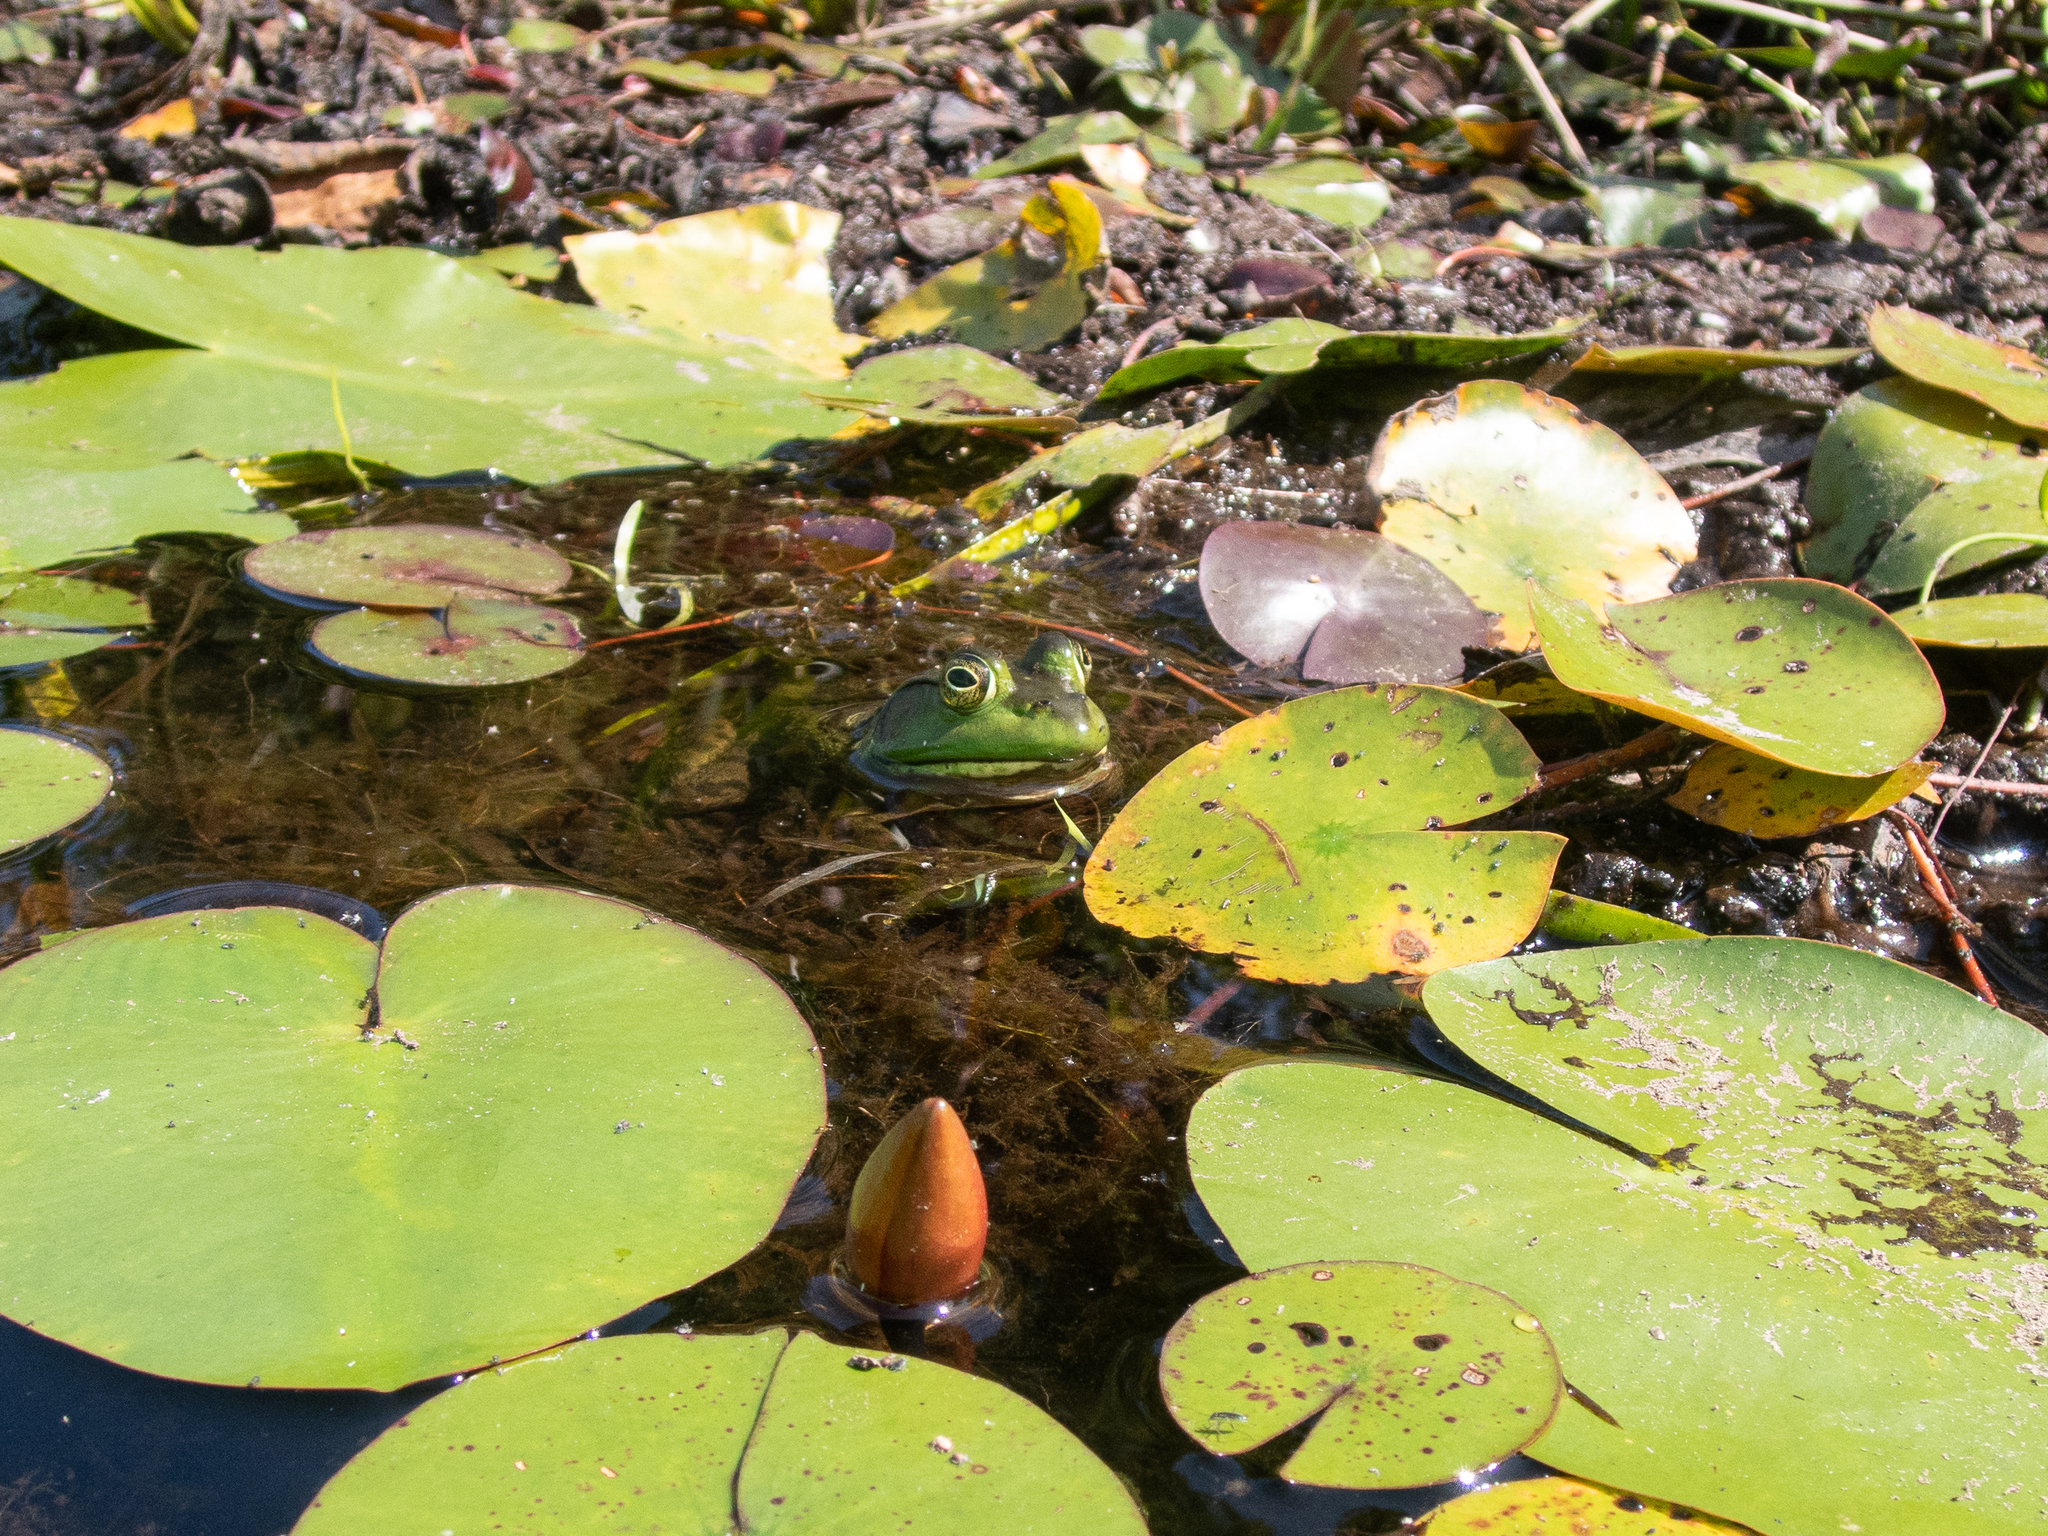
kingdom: Animalia
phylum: Chordata
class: Amphibia
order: Anura
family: Ranidae
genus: Lithobates
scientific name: Lithobates catesbeianus
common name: American bullfrog
